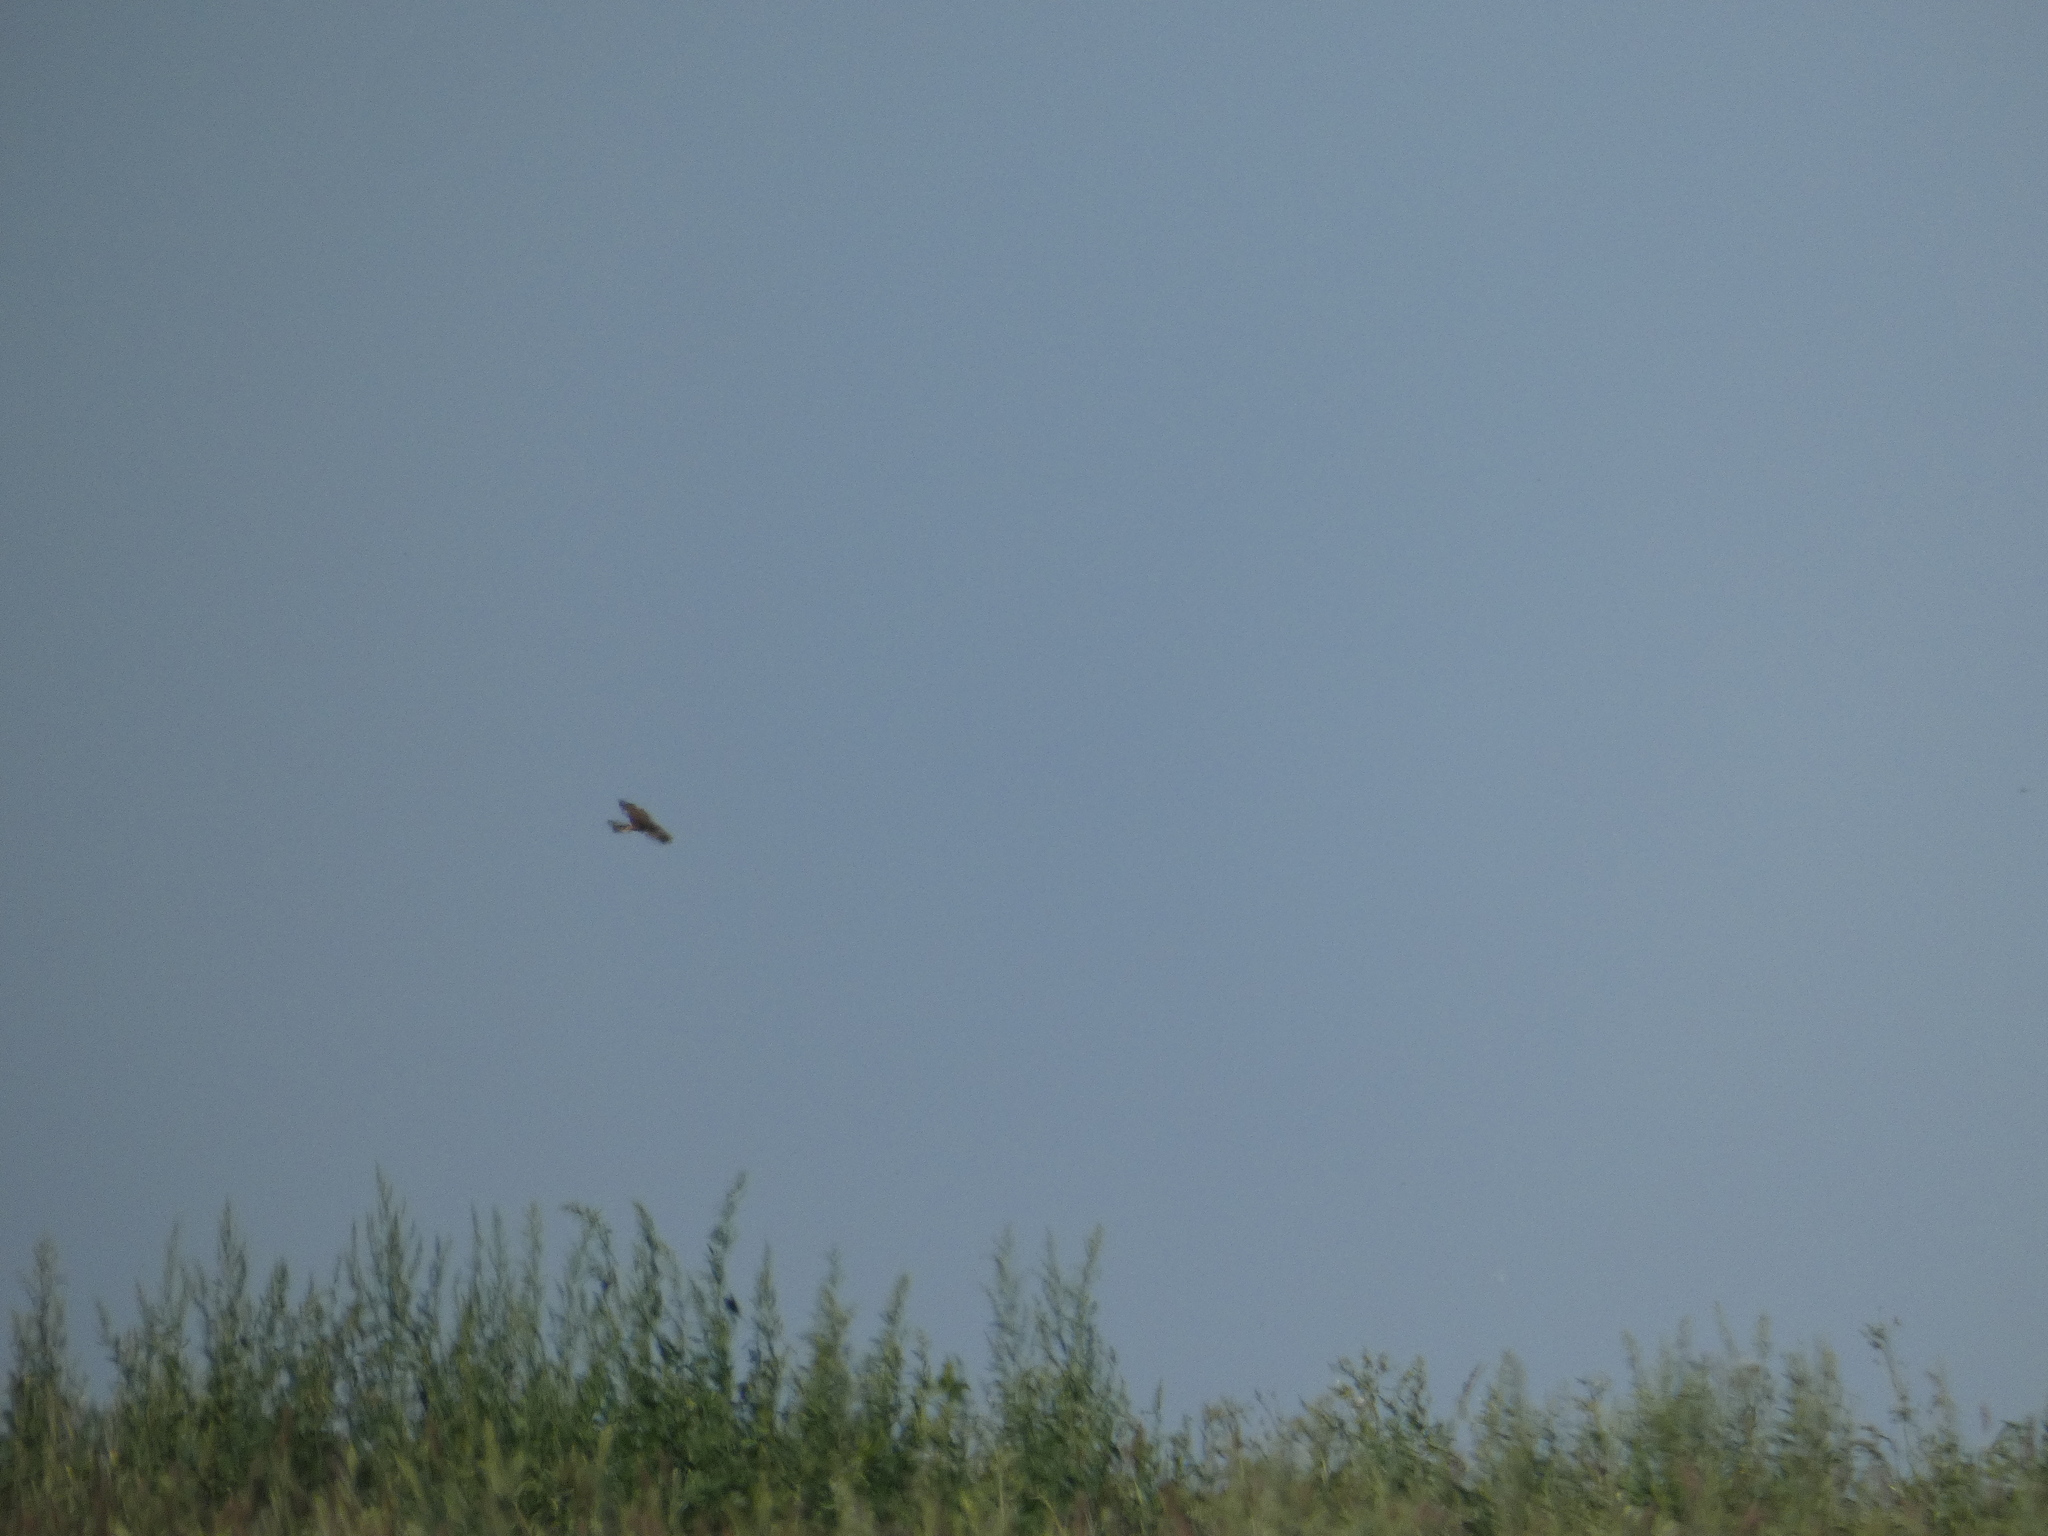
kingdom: Animalia
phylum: Chordata
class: Aves
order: Accipitriformes
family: Accipitridae
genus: Circus
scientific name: Circus aeruginosus
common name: Western marsh harrier
